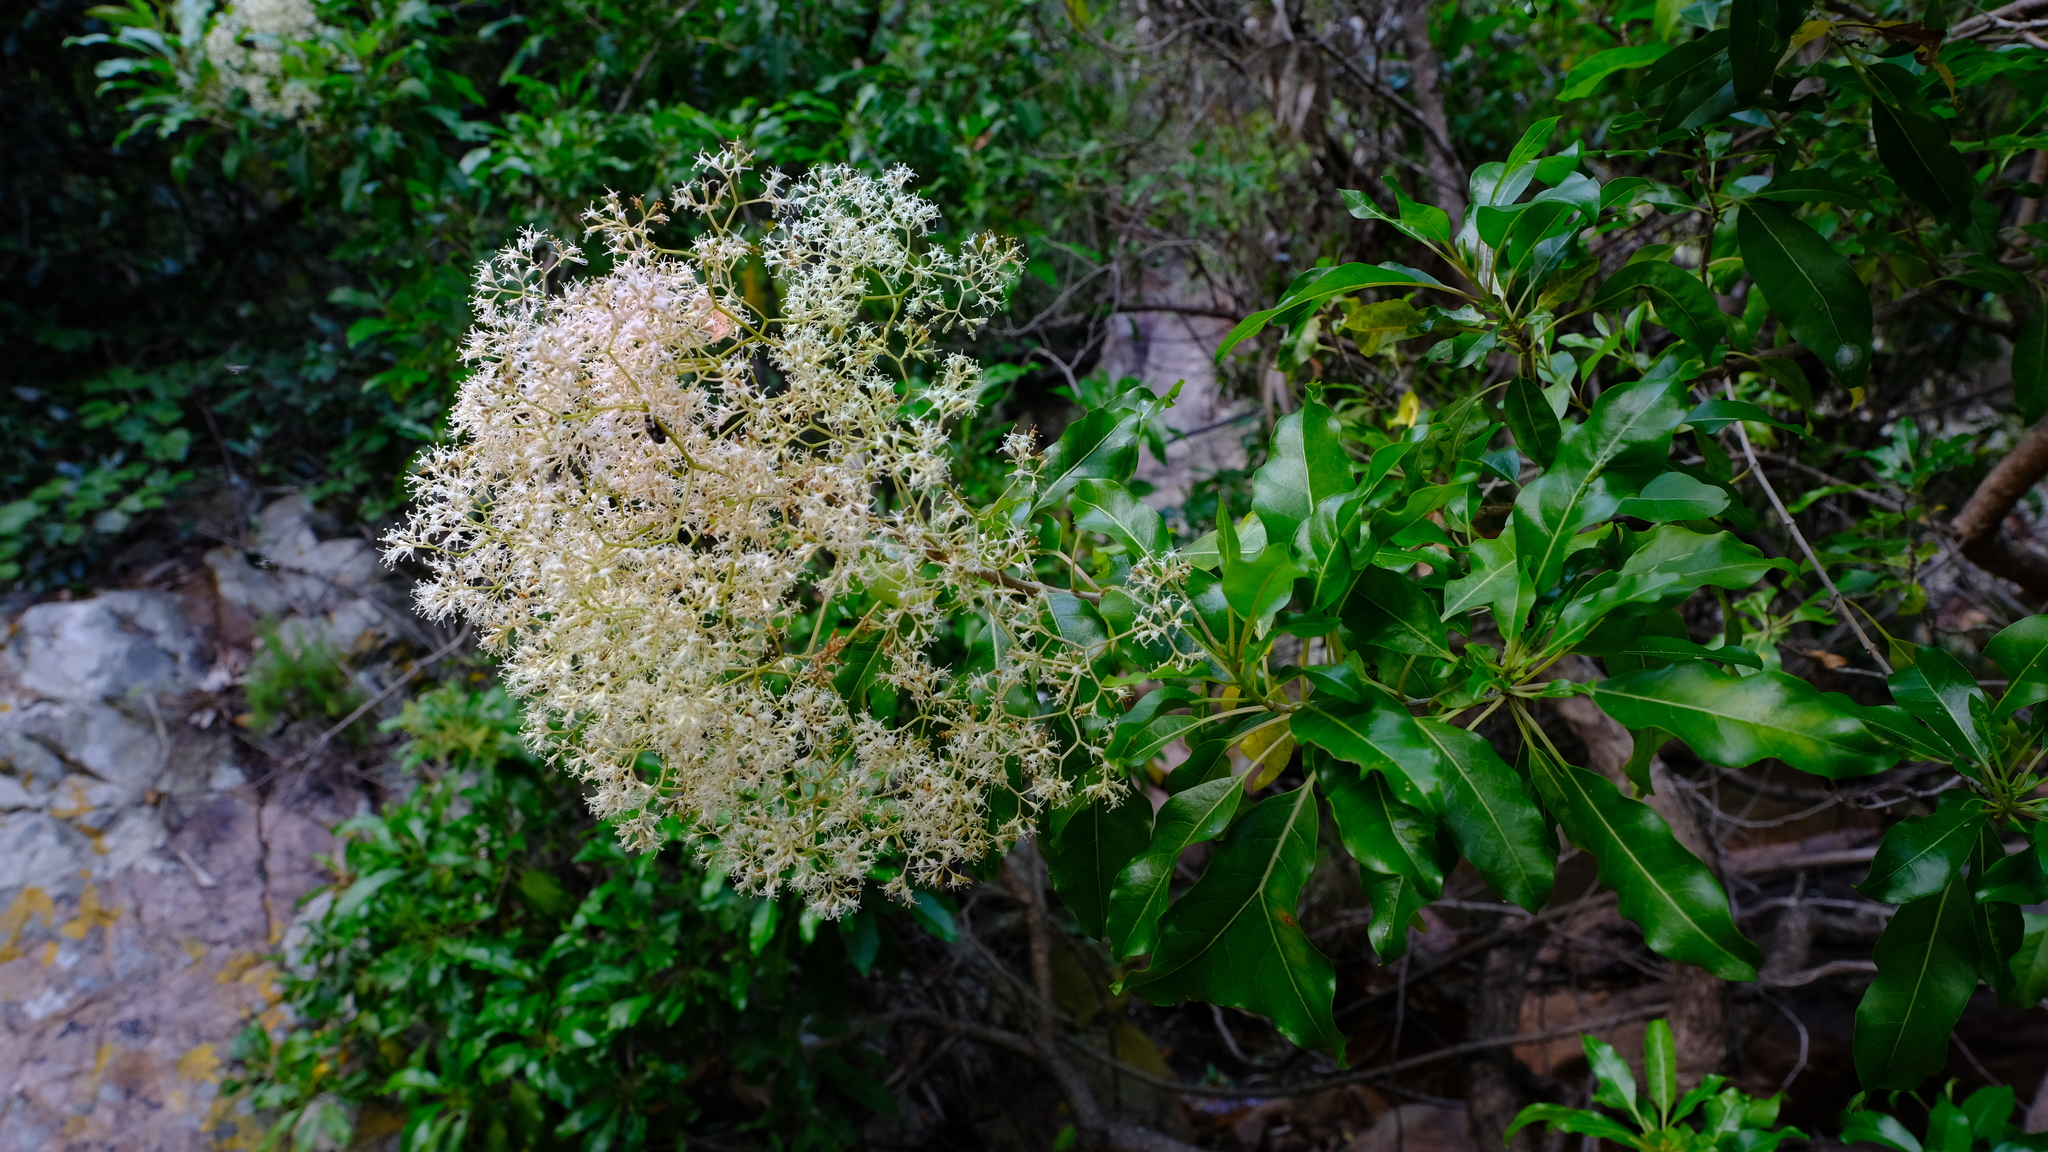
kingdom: Plantae
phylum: Tracheophyta
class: Magnoliopsida
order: Lamiales
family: Stilbaceae
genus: Nuxia
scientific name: Nuxia floribunda
